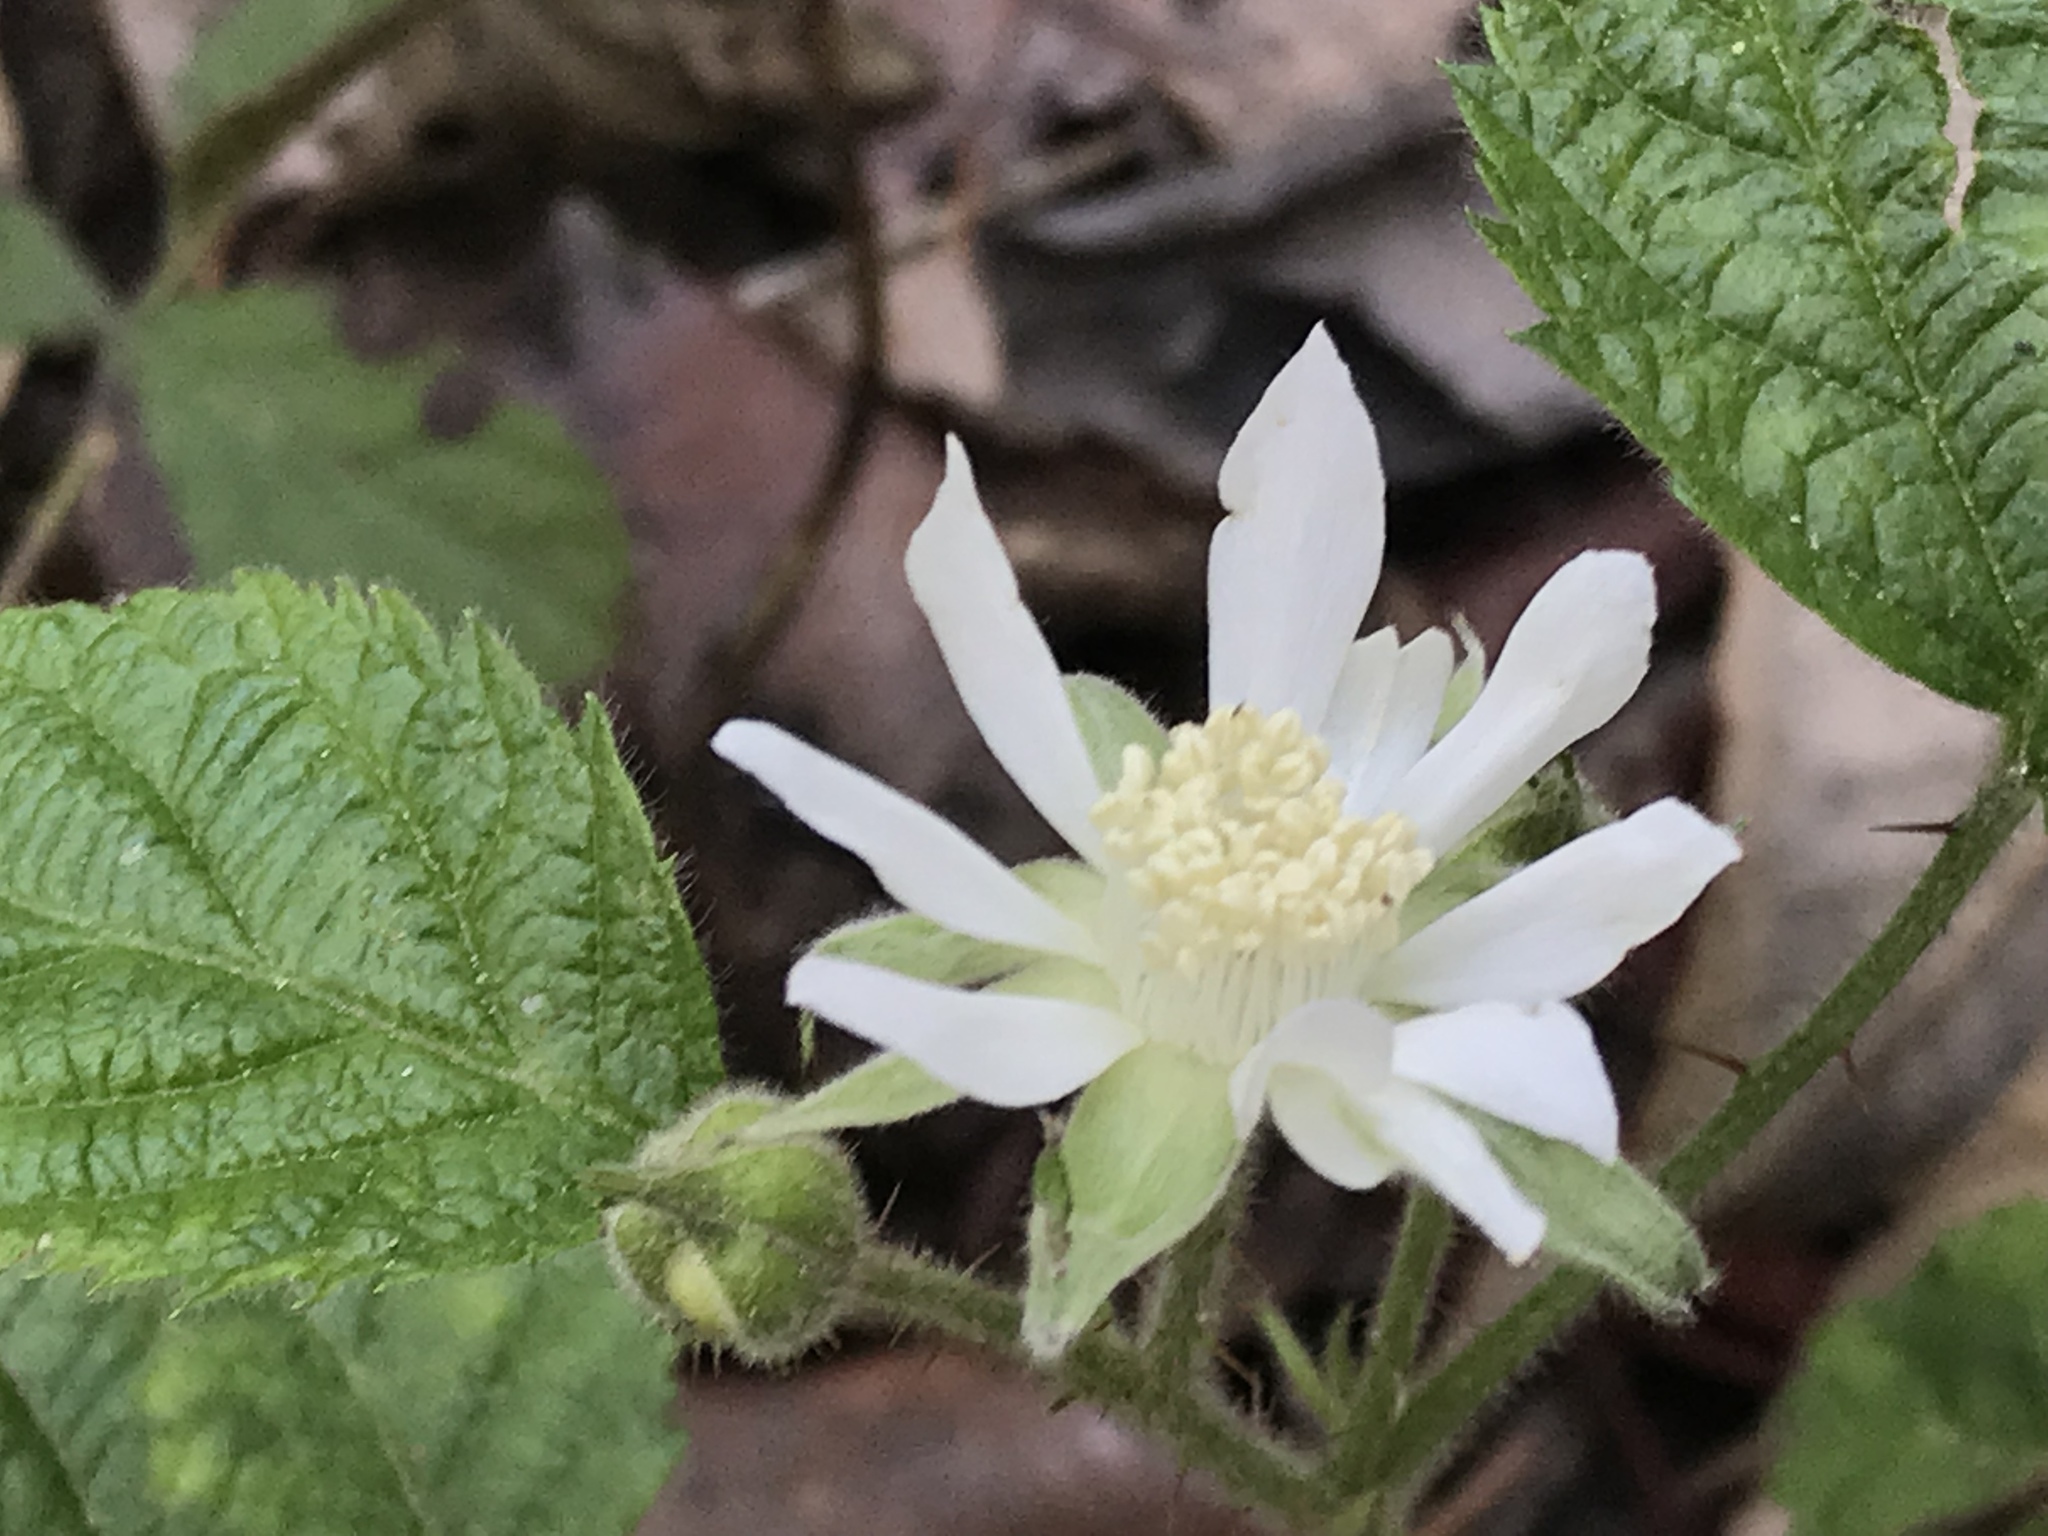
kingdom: Plantae
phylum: Tracheophyta
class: Magnoliopsida
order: Rosales
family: Rosaceae
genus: Rubus
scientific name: Rubus ursinus
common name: Pacific blackberry
